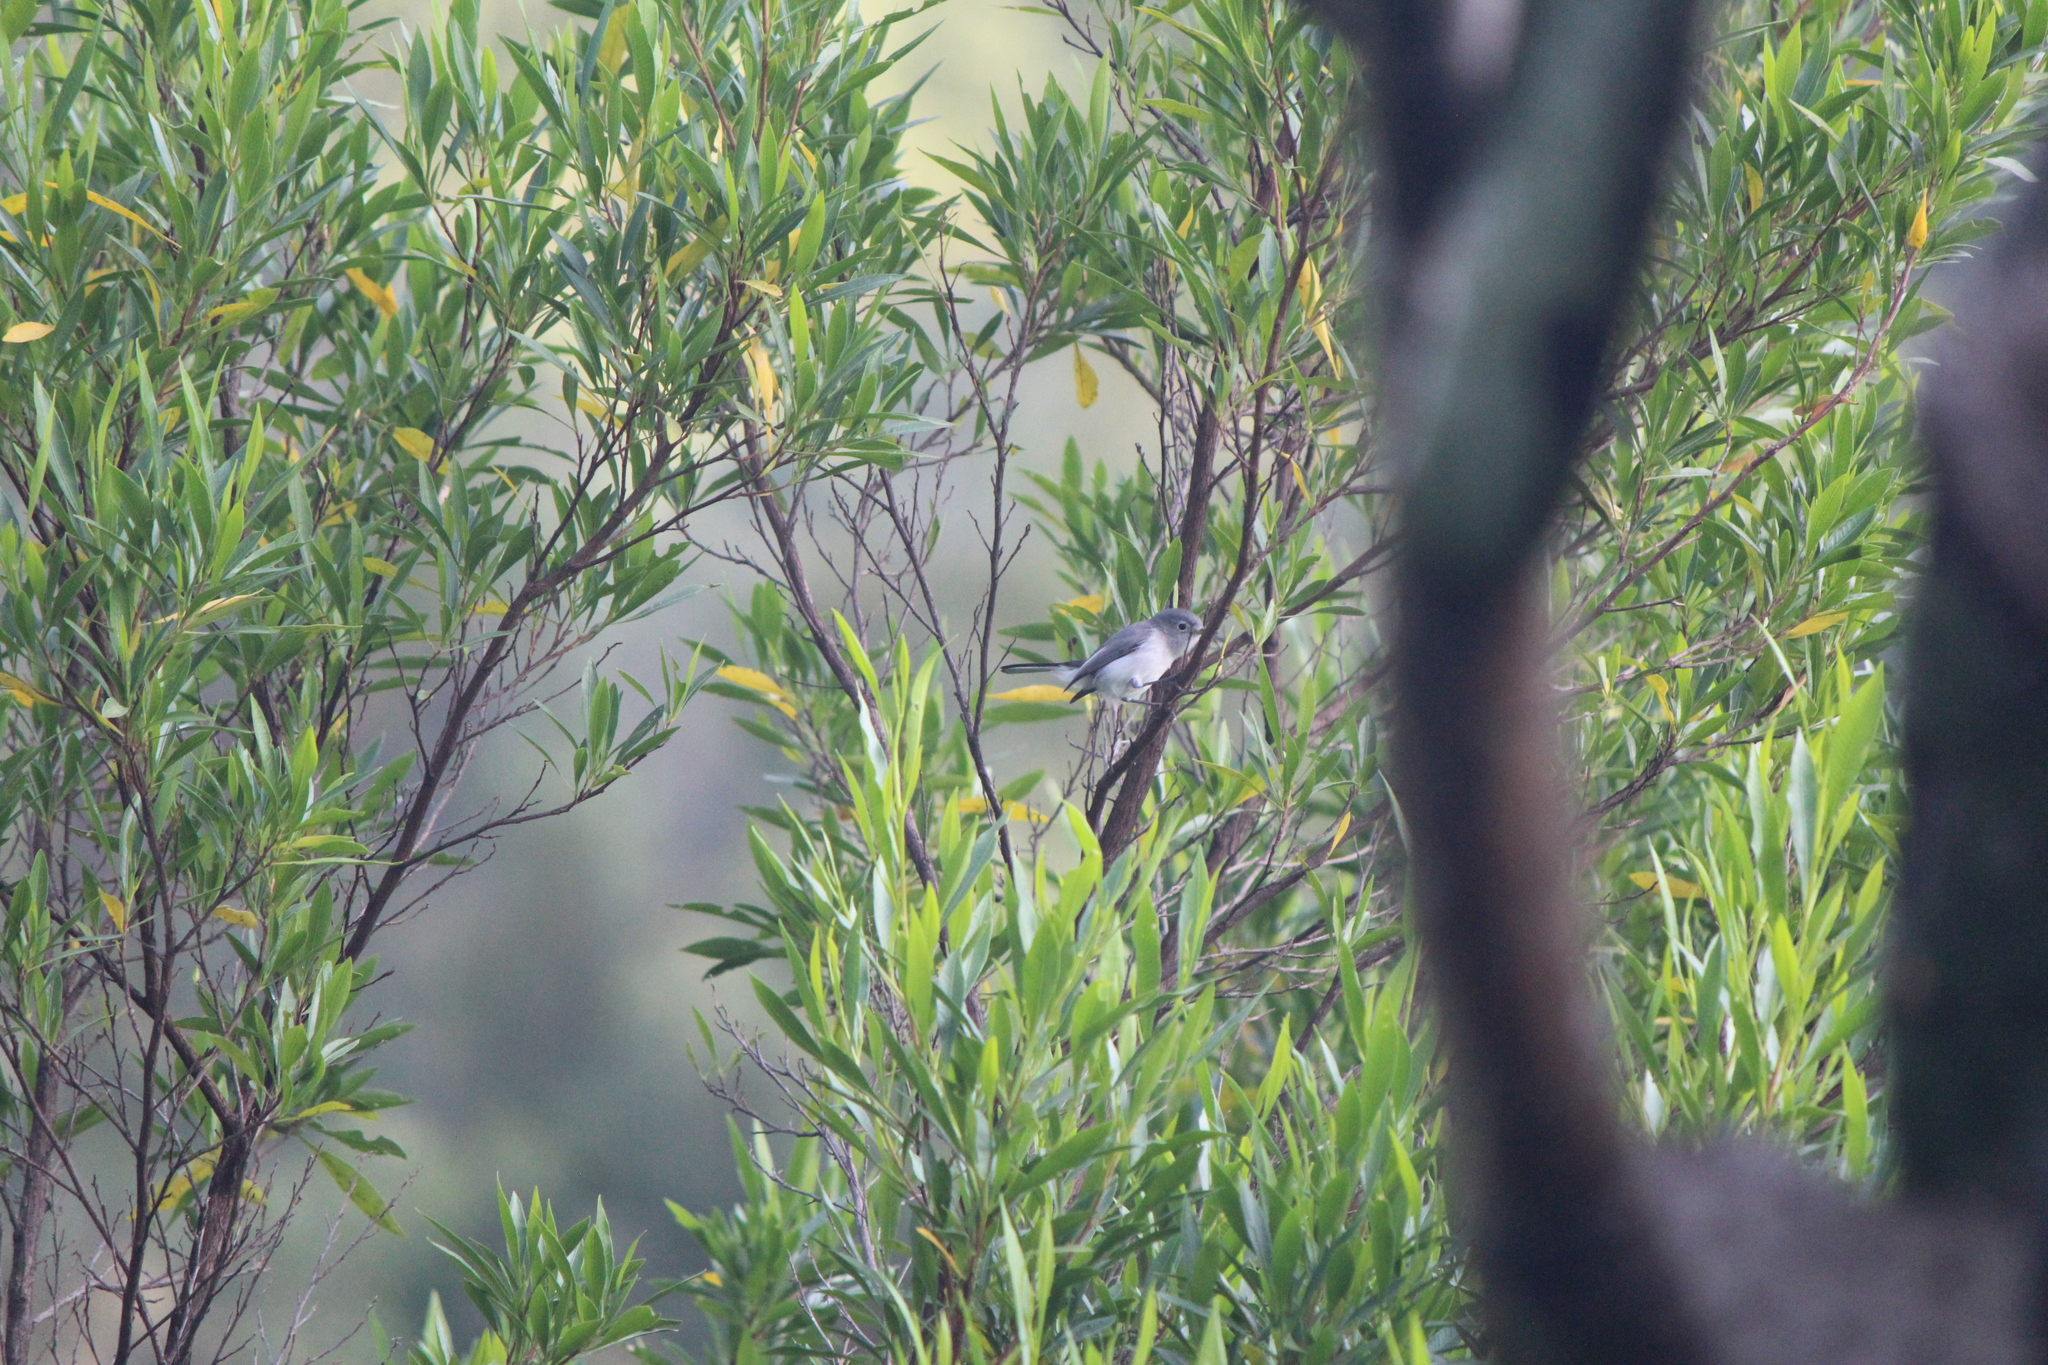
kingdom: Animalia
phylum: Chordata
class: Aves
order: Passeriformes
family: Polioptilidae
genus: Polioptila
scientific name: Polioptila caerulea
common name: Blue-gray gnatcatcher
